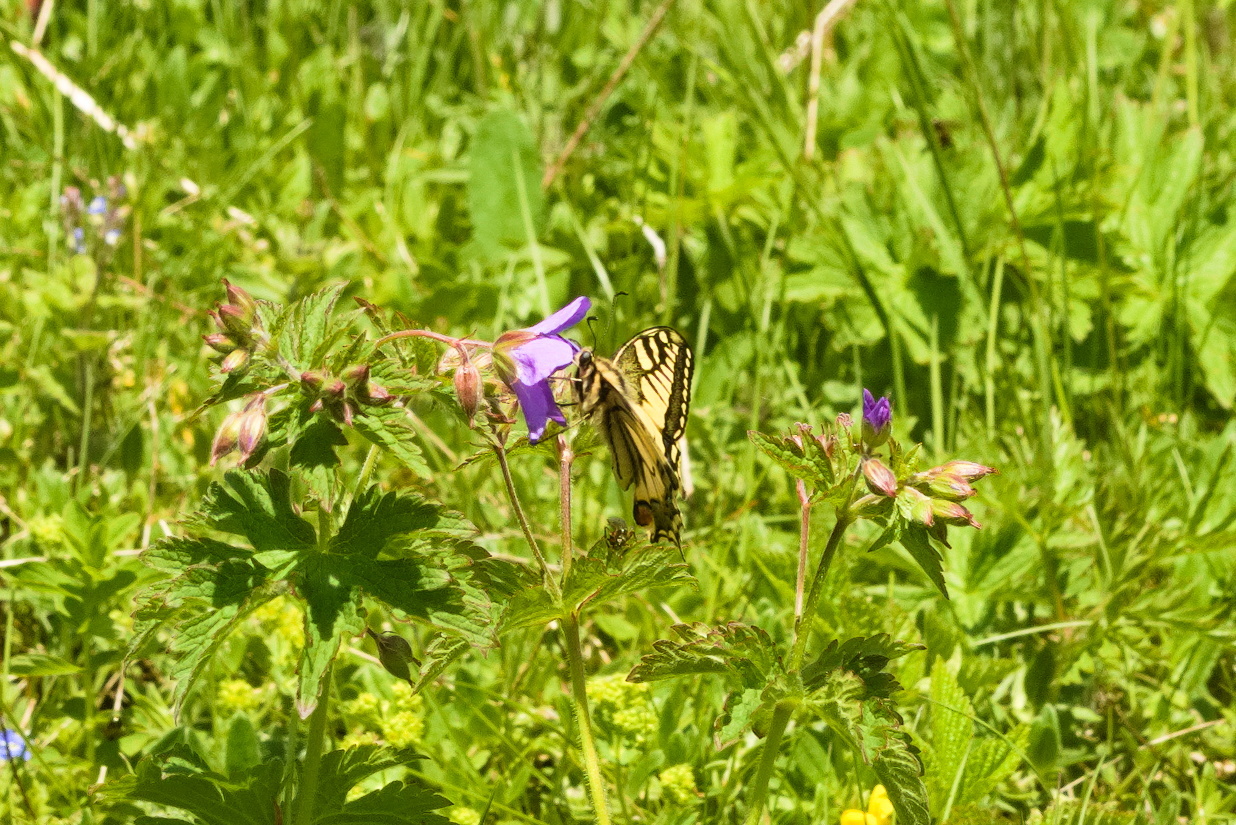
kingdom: Animalia
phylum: Arthropoda
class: Insecta
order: Lepidoptera
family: Papilionidae
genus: Papilio
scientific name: Papilio machaon
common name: Swallowtail
